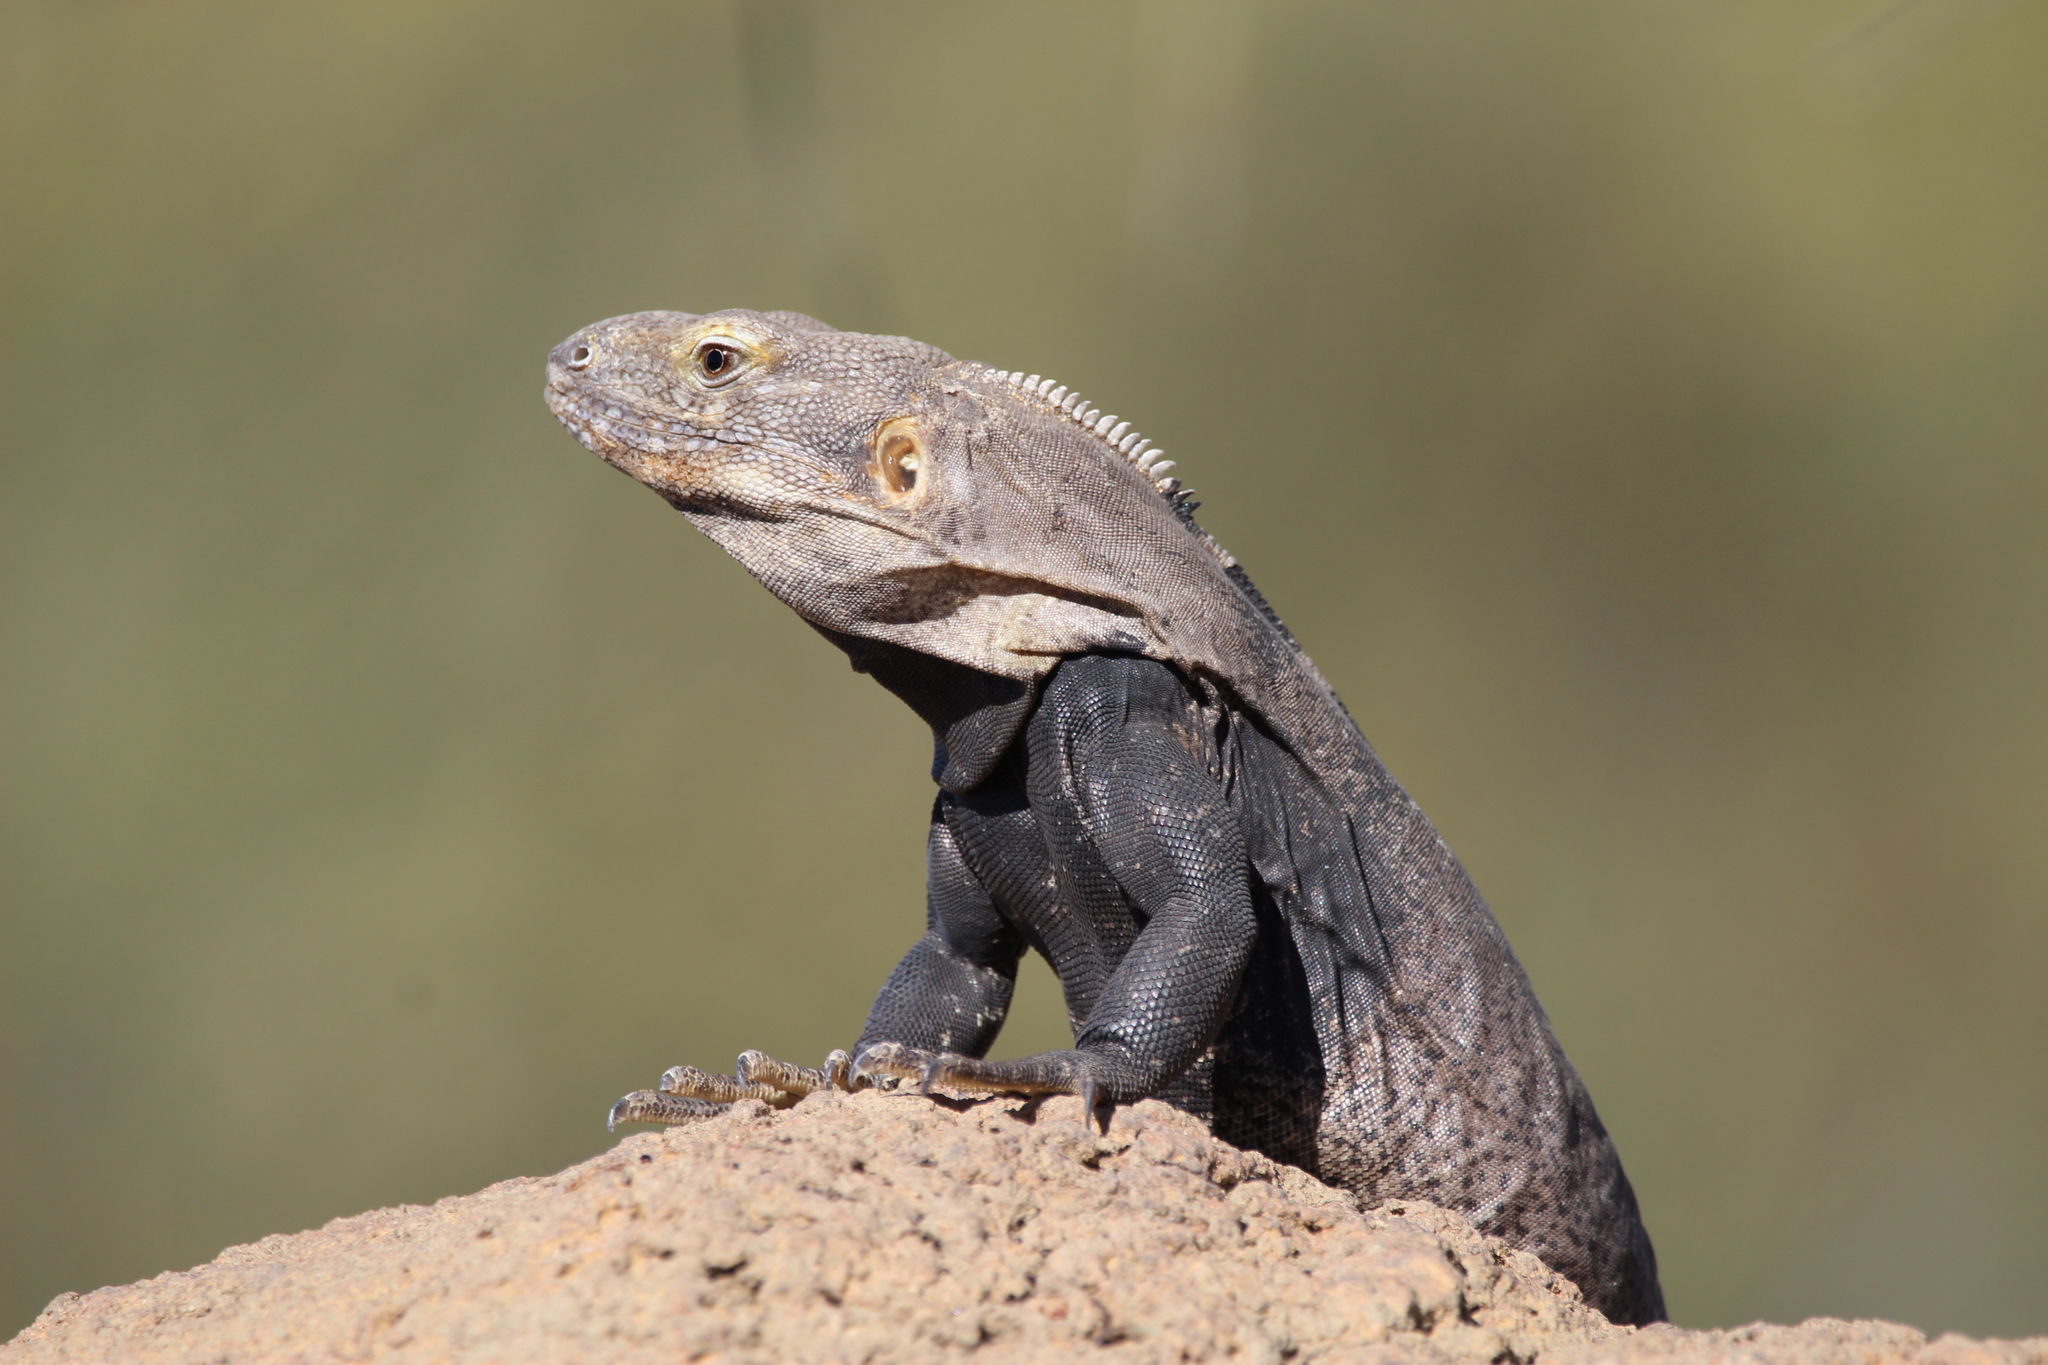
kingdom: Animalia
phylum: Chordata
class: Squamata
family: Iguanidae
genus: Ctenosaura
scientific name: Ctenosaura
